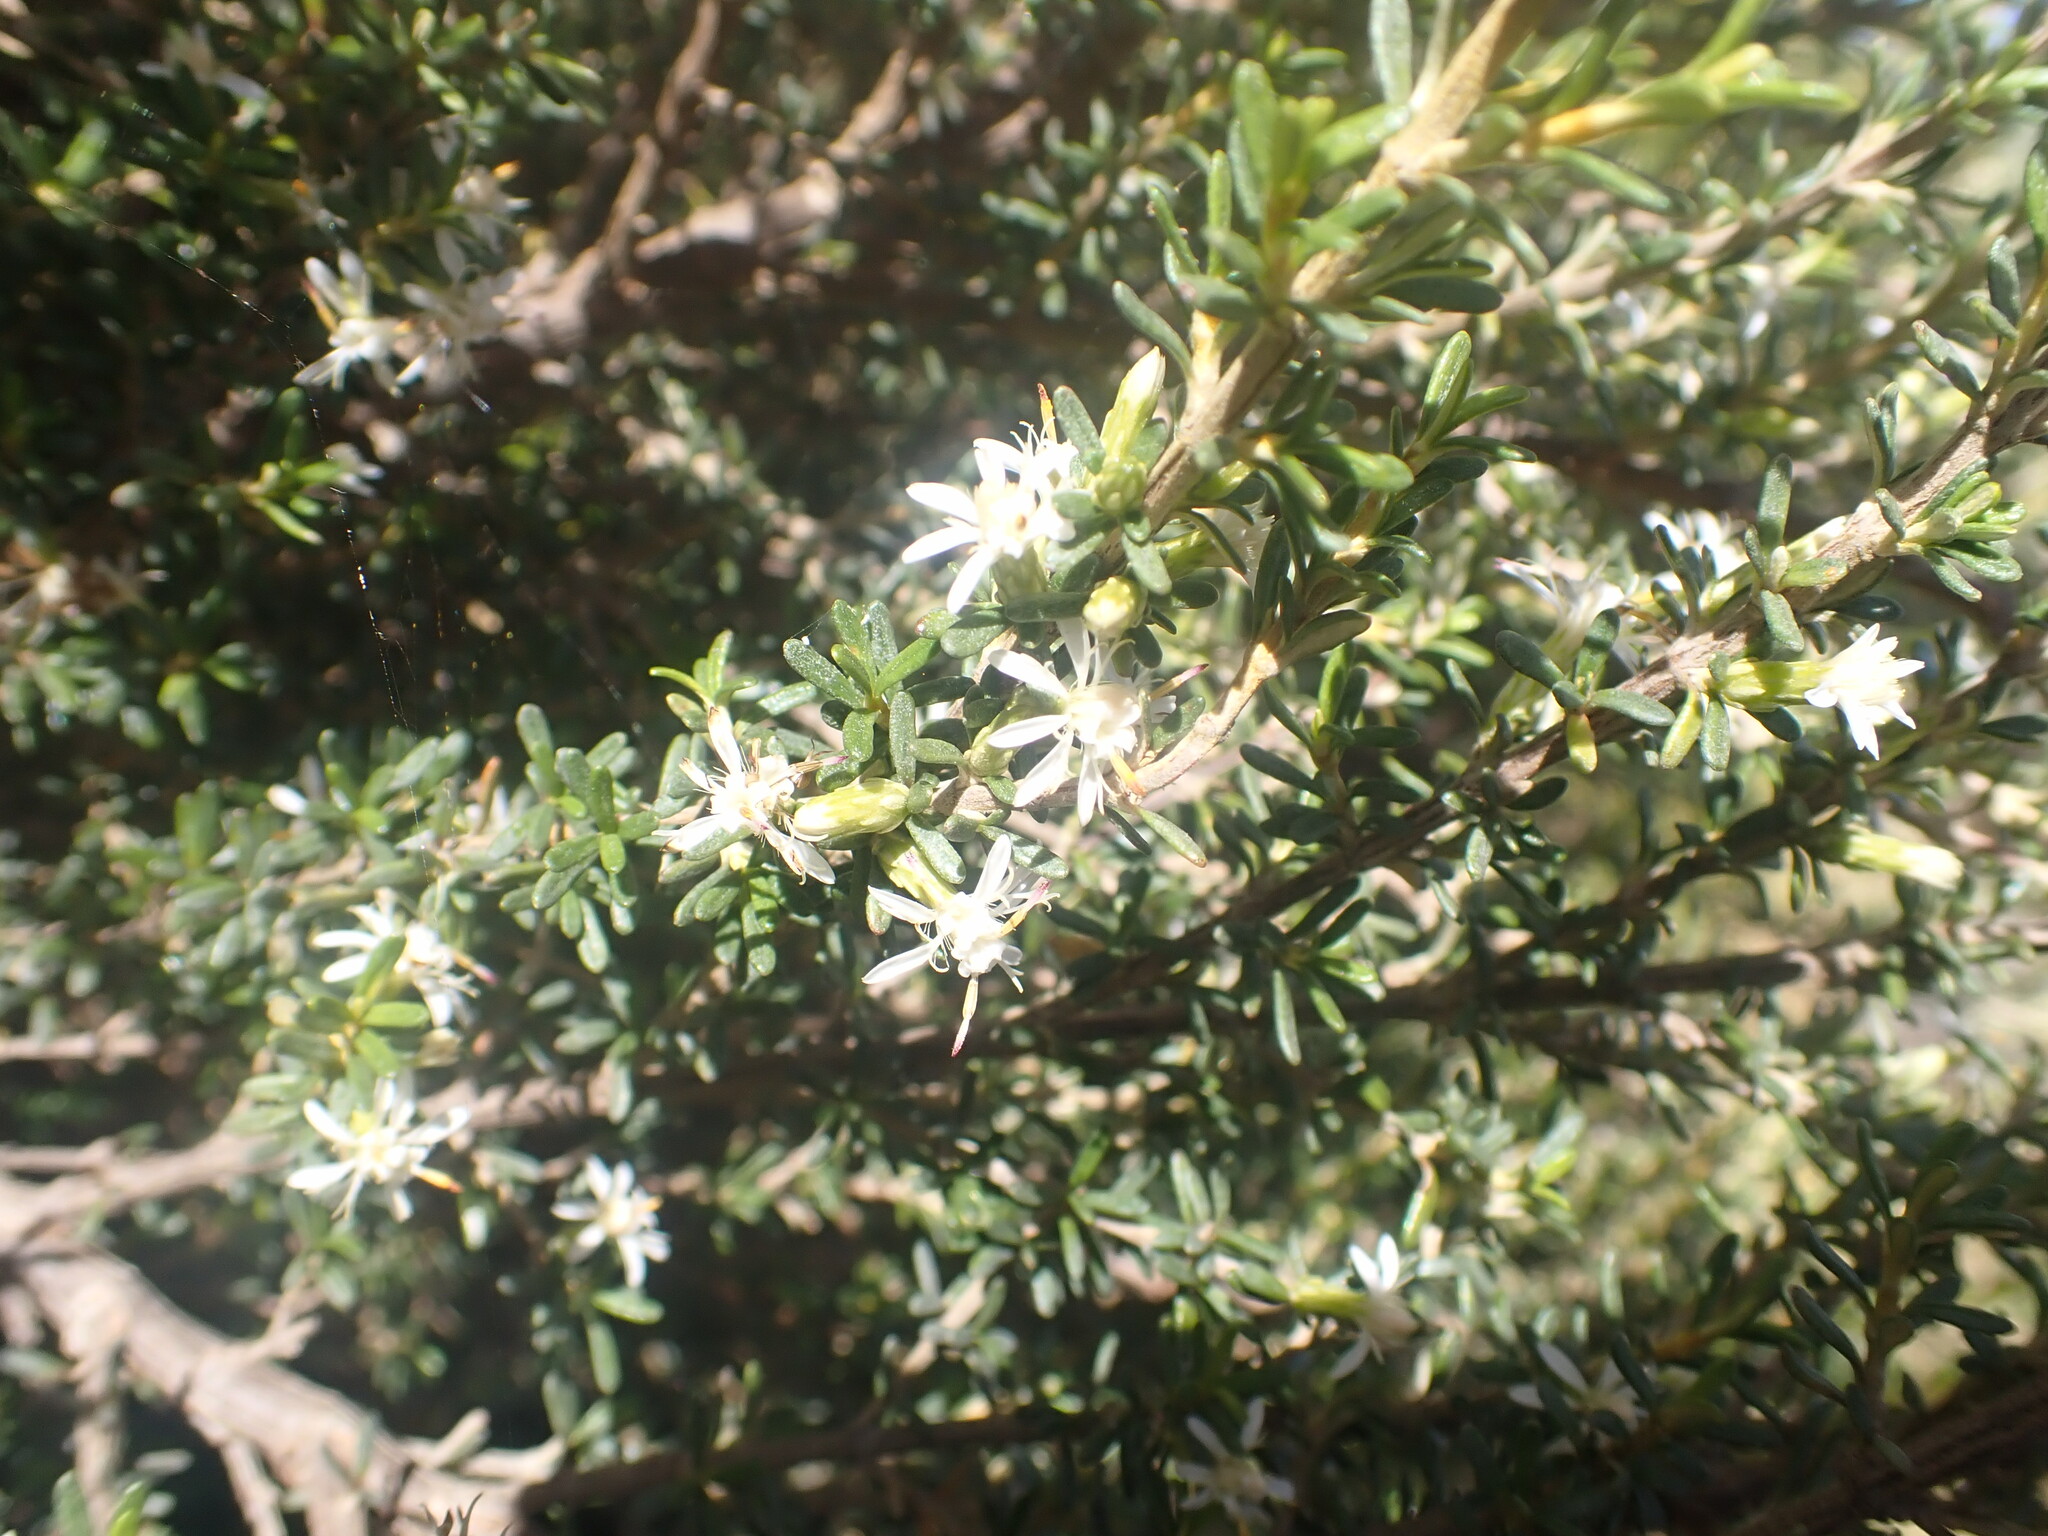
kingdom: Plantae
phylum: Tracheophyta
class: Magnoliopsida
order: Asterales
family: Asteraceae
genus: Olearia
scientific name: Olearia solandri
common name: Coastal daisybush
